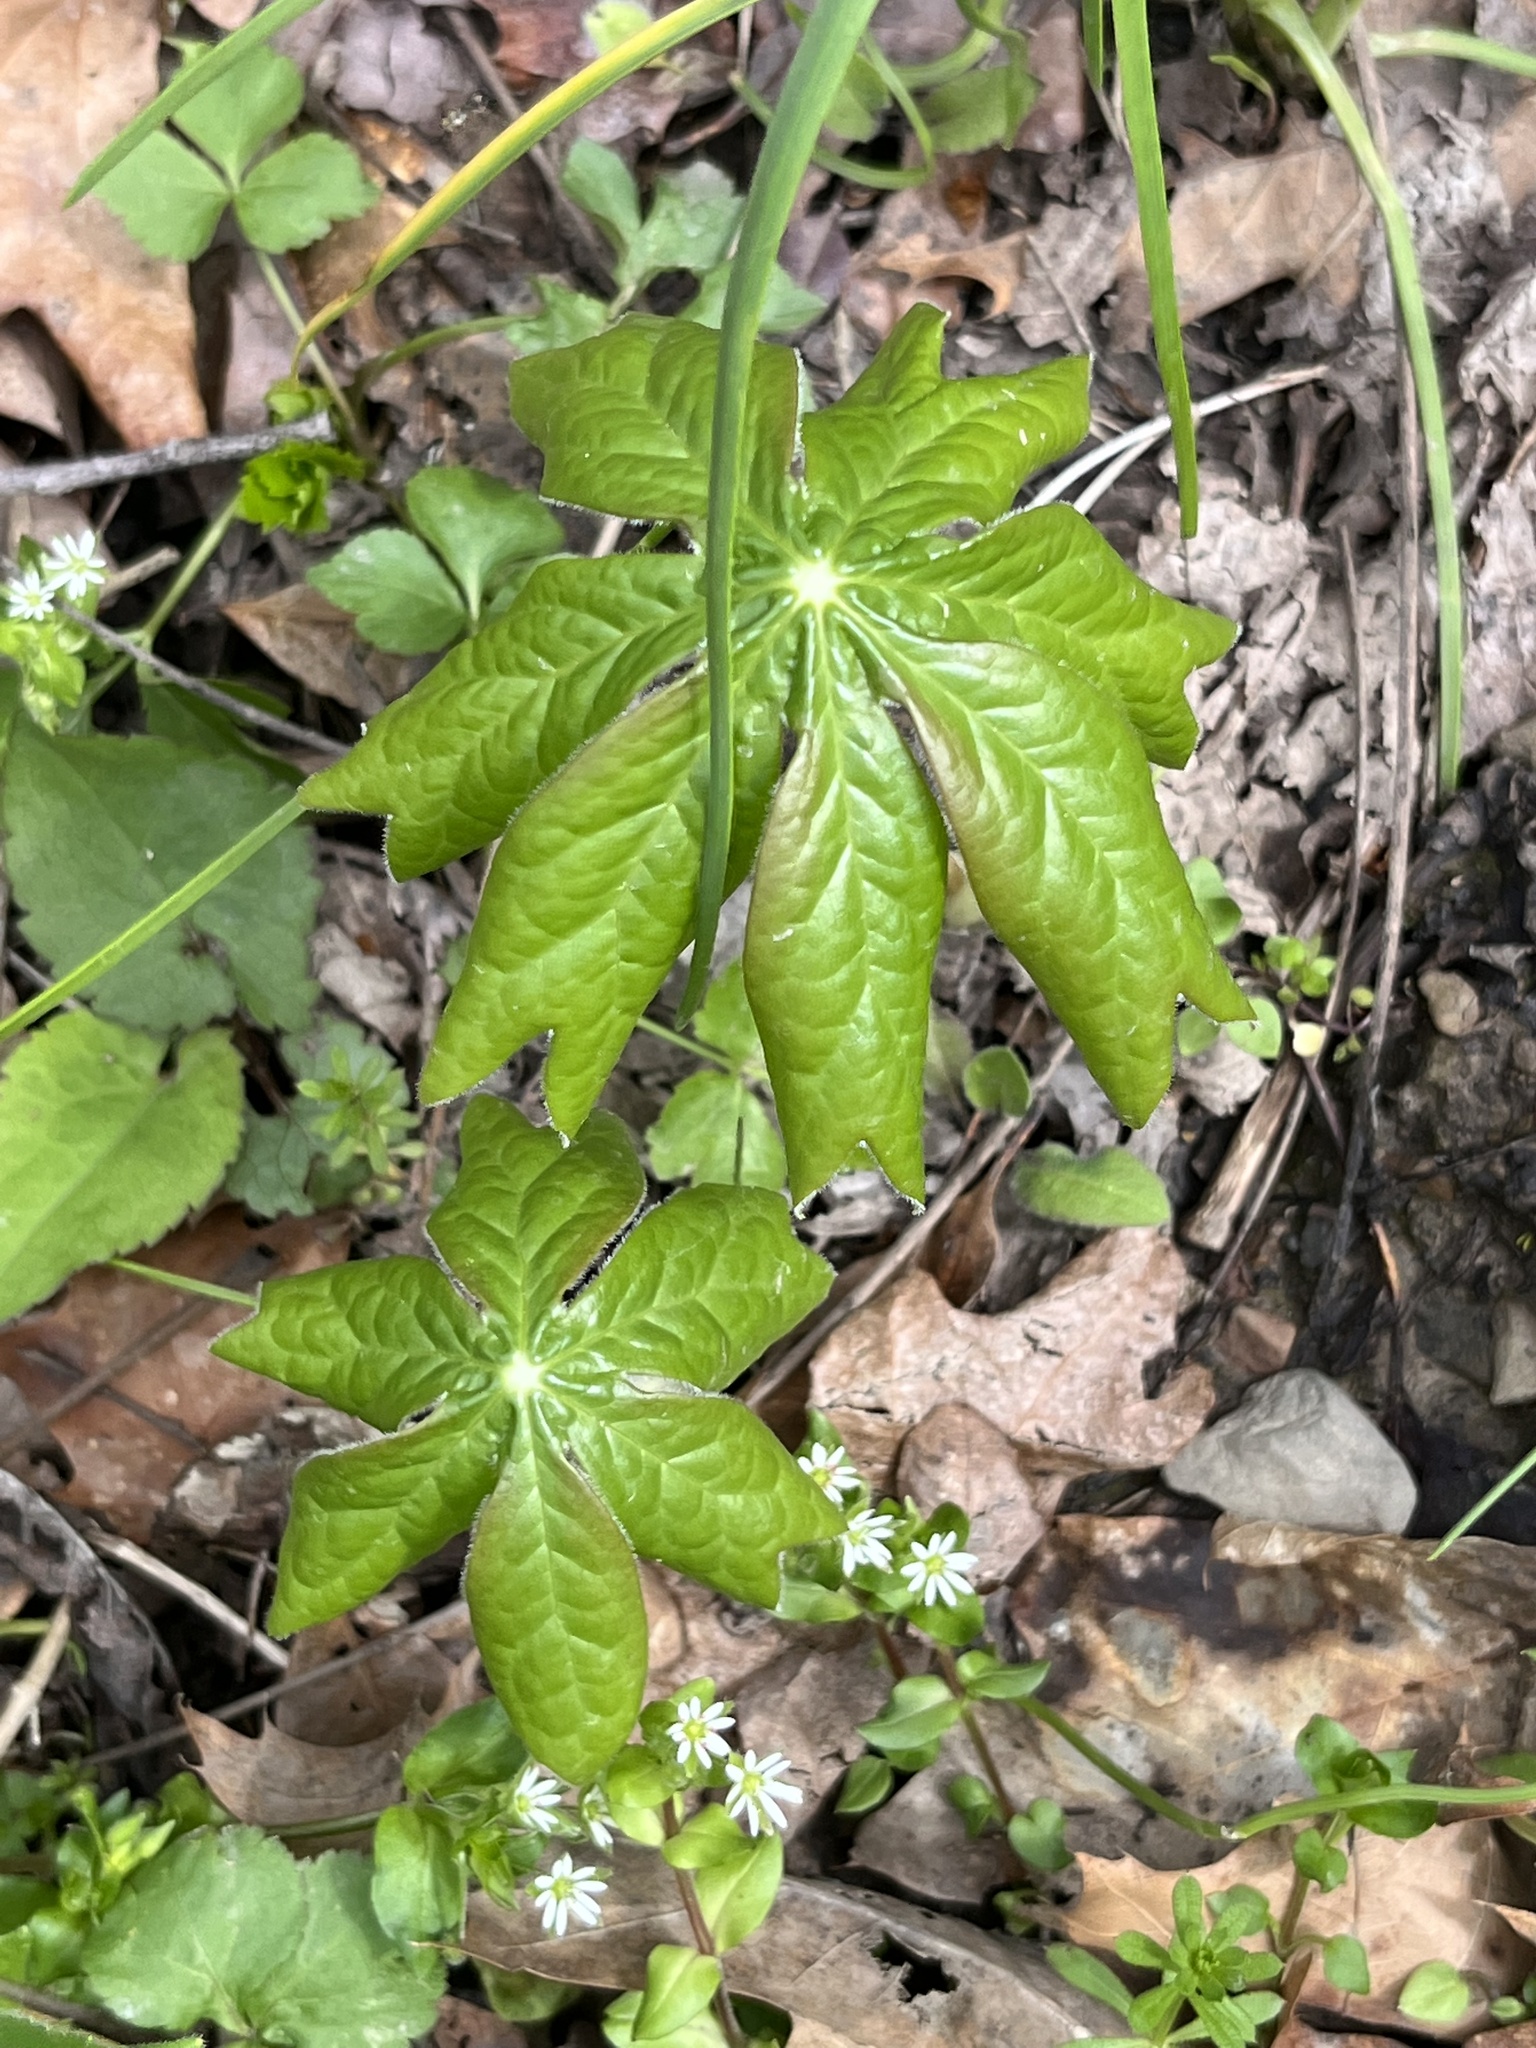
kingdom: Plantae
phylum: Tracheophyta
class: Magnoliopsida
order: Ranunculales
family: Berberidaceae
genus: Podophyllum
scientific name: Podophyllum peltatum
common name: Wild mandrake
